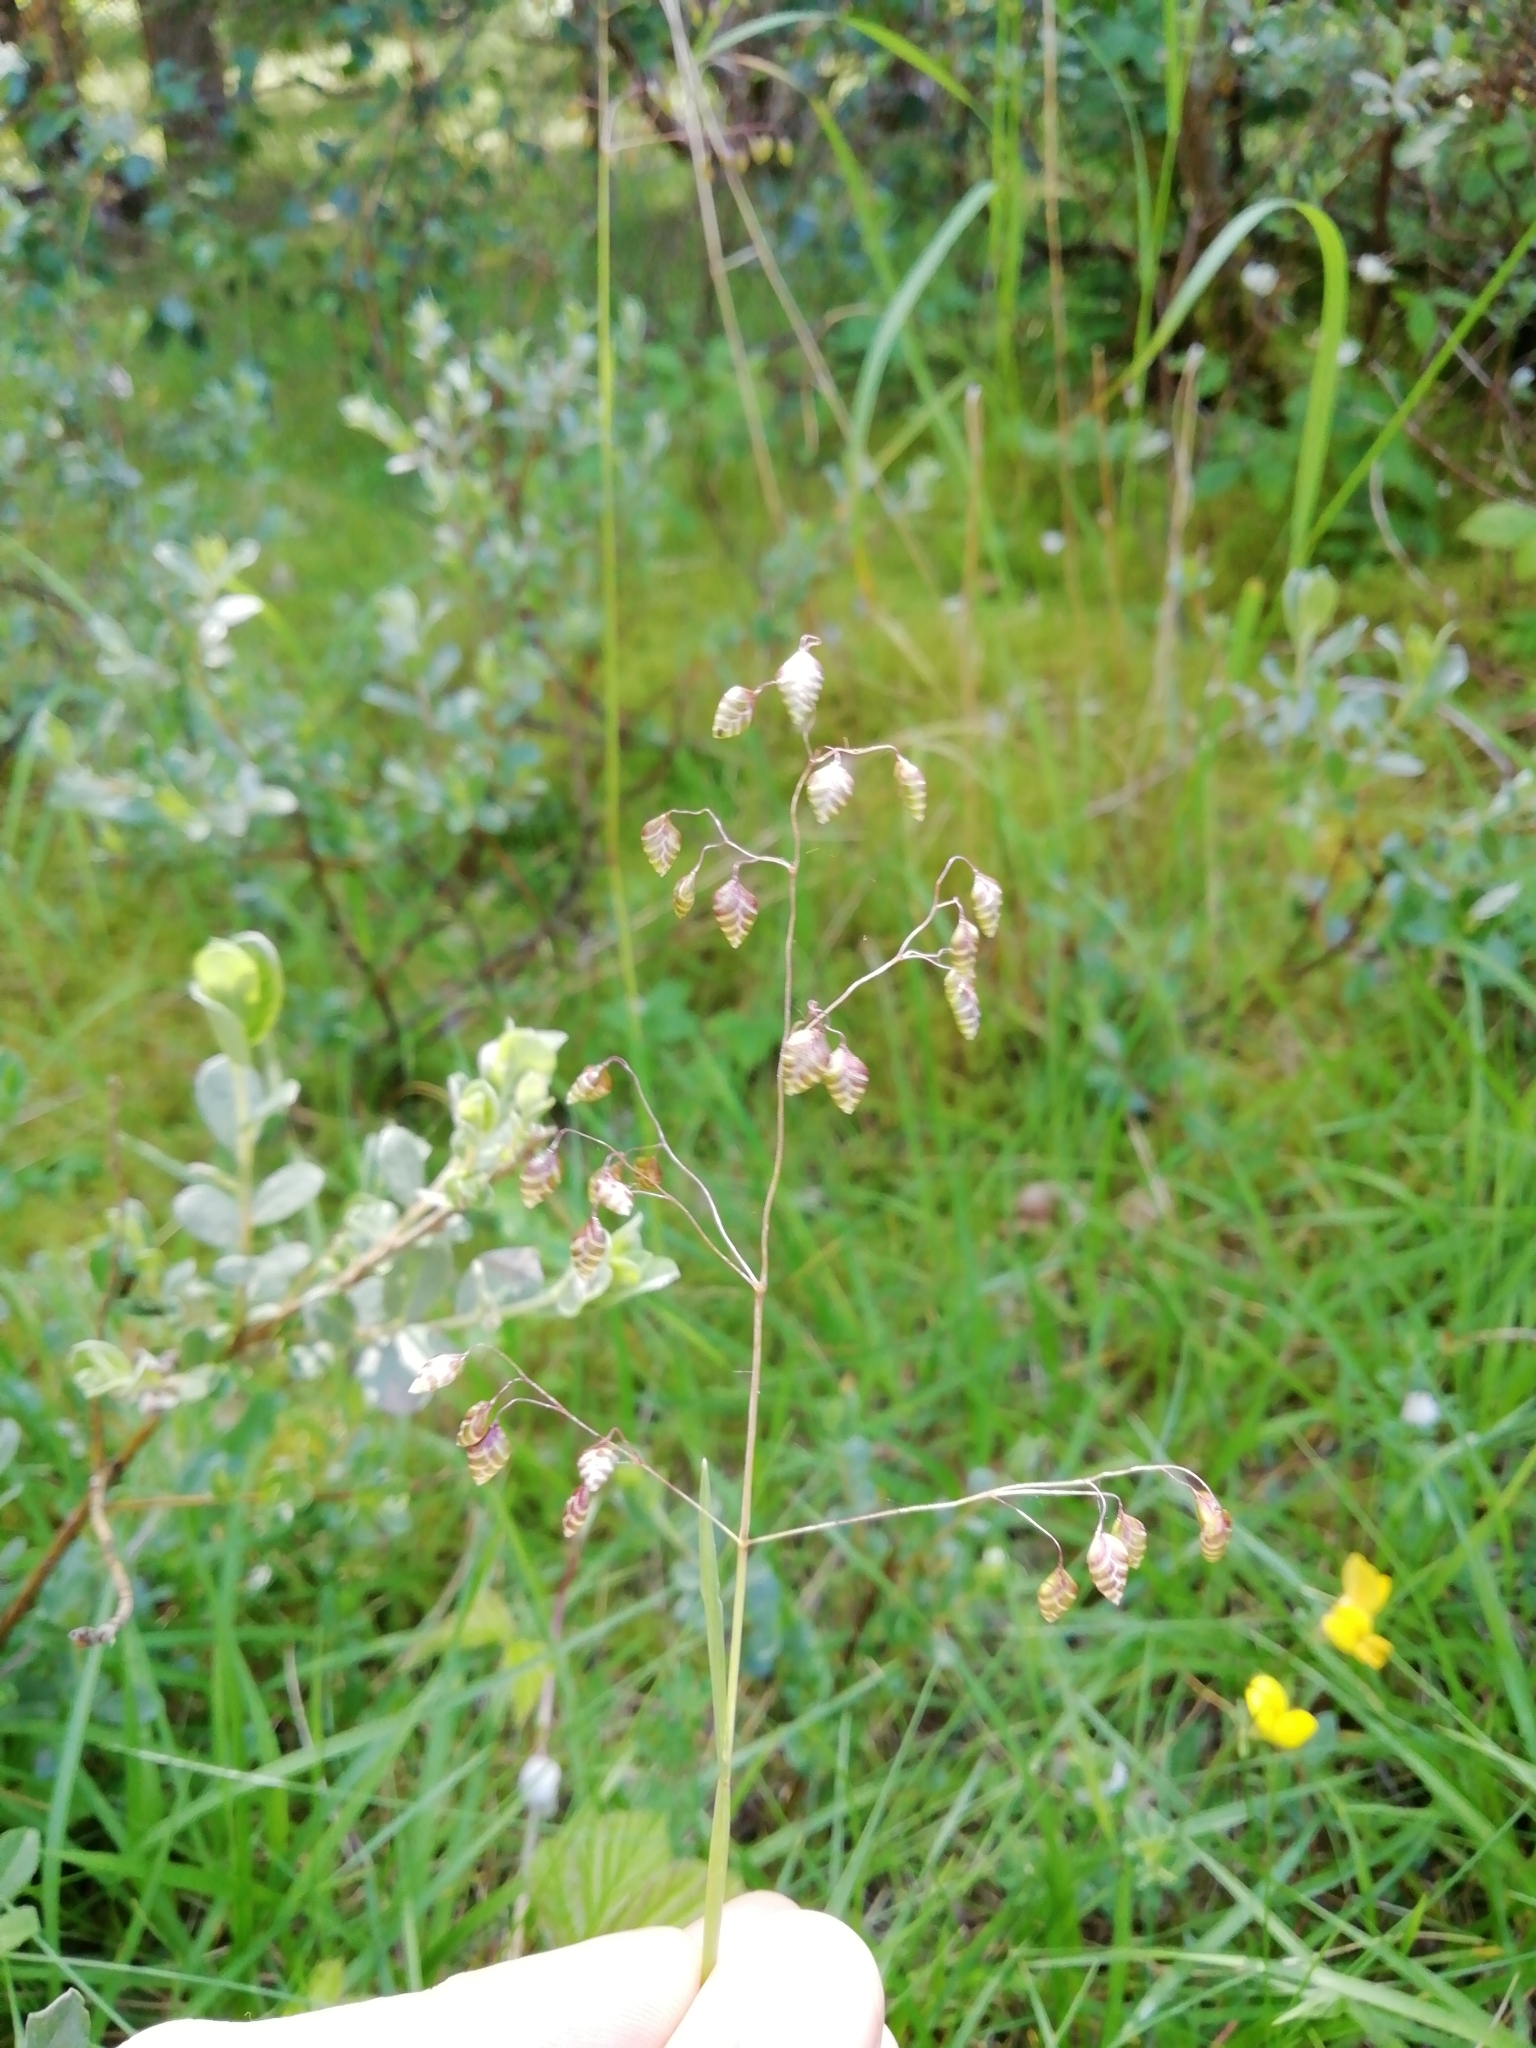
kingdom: Plantae
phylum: Tracheophyta
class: Liliopsida
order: Poales
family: Poaceae
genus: Briza
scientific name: Briza media
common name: Quaking grass
